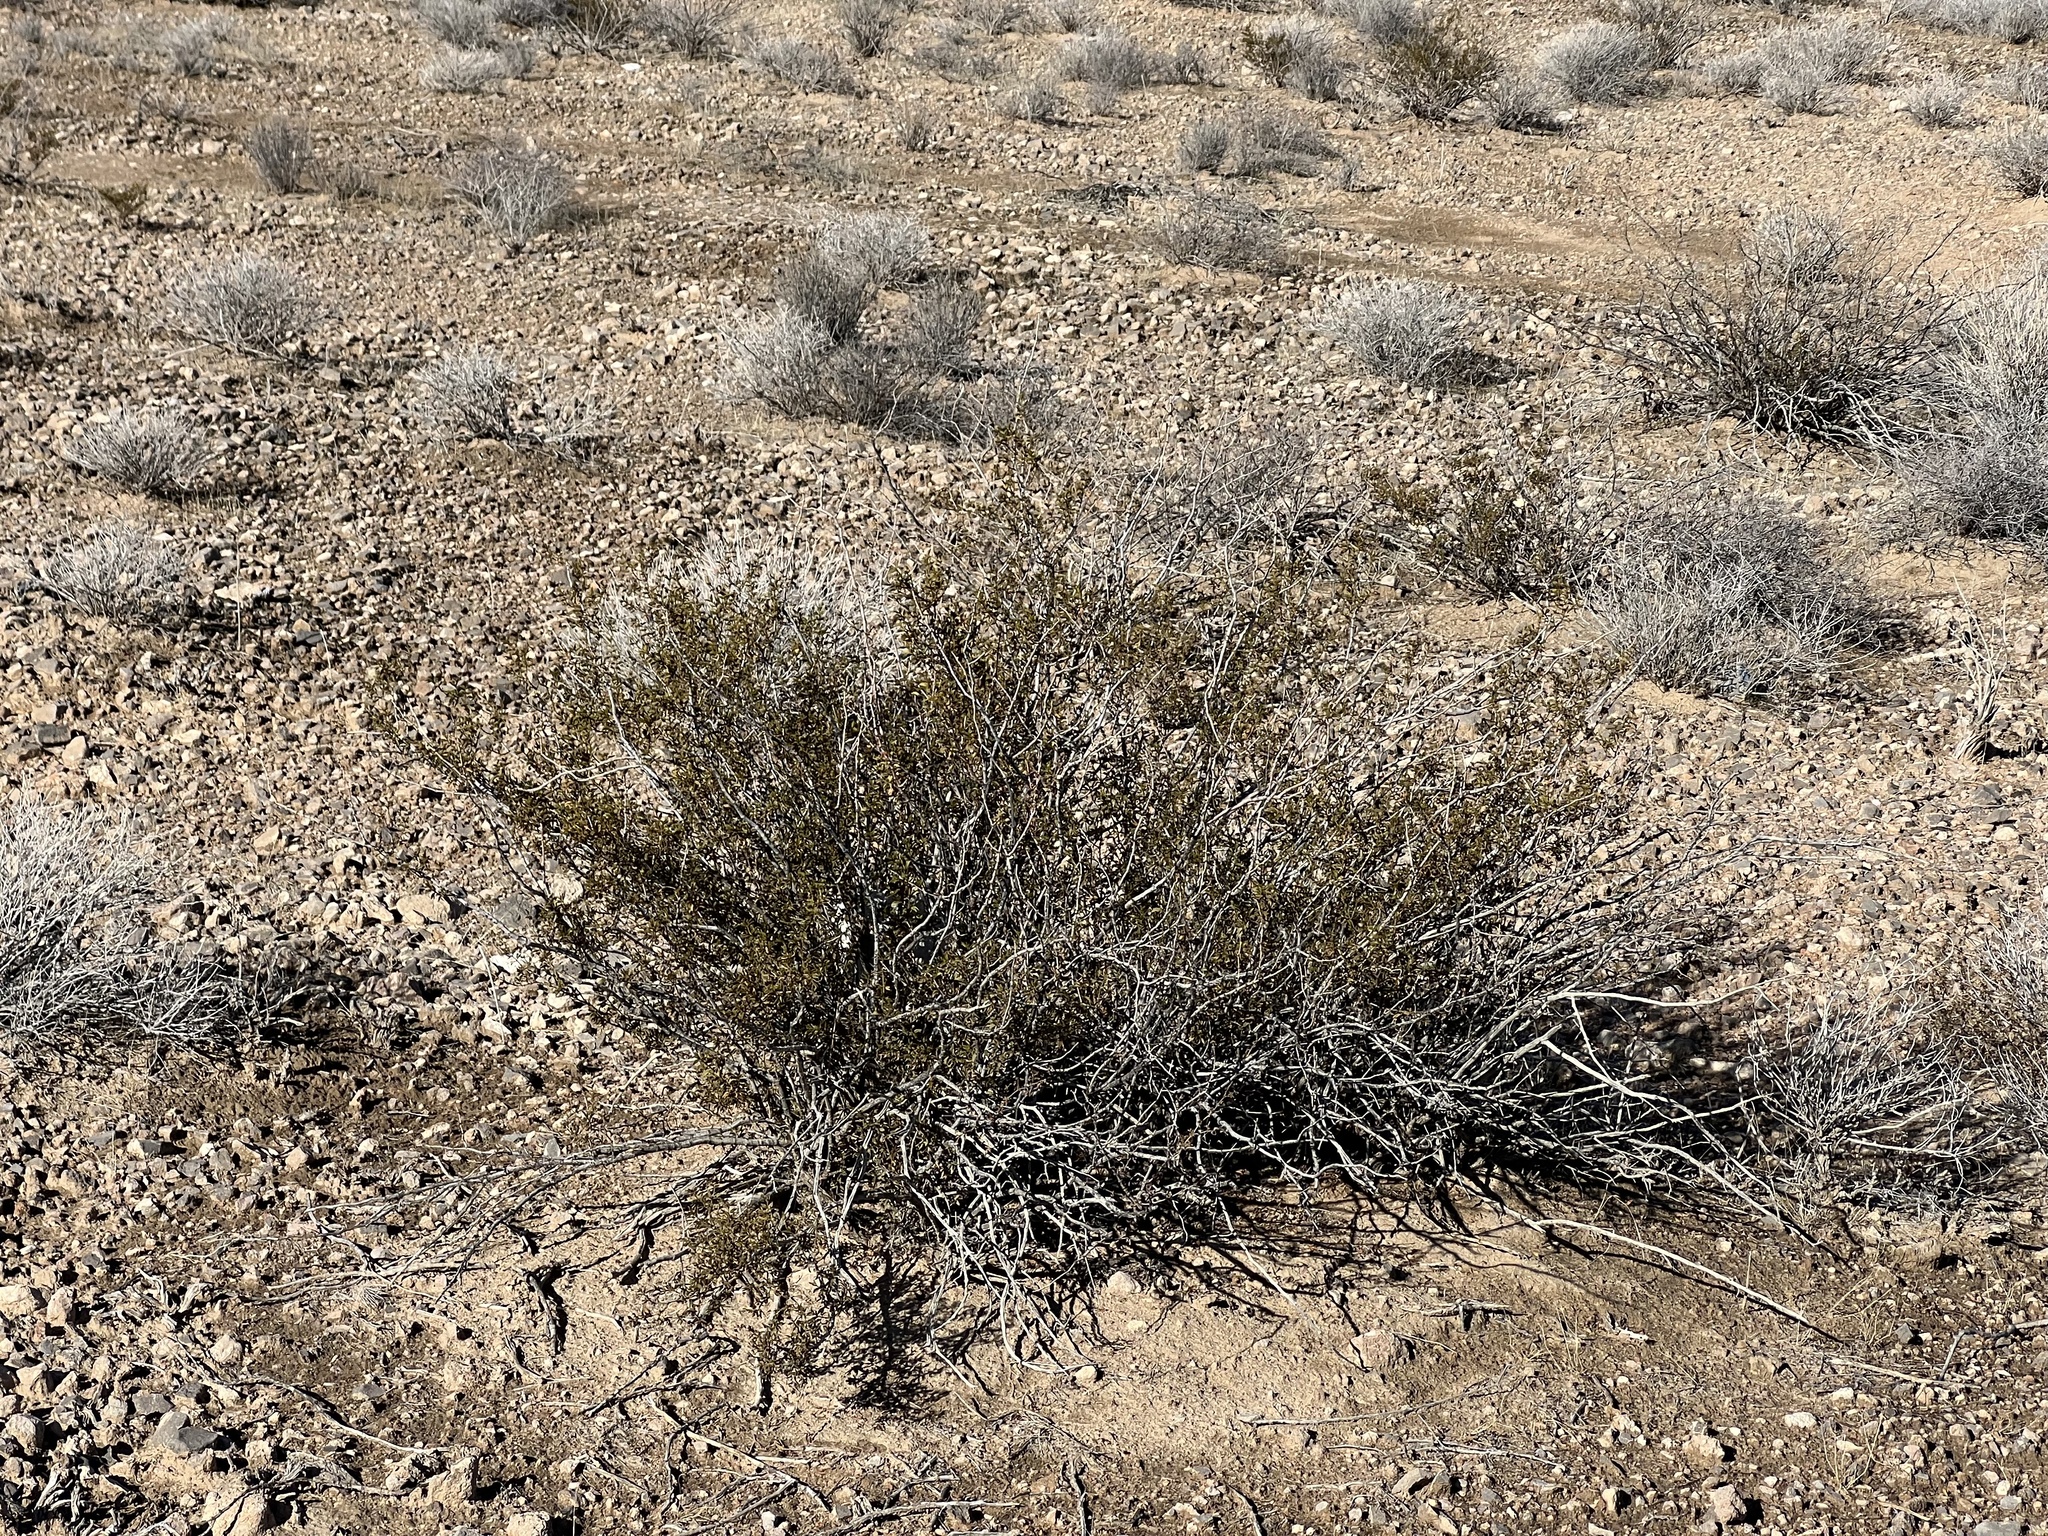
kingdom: Plantae
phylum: Tracheophyta
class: Magnoliopsida
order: Zygophyllales
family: Zygophyllaceae
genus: Larrea
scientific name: Larrea tridentata
